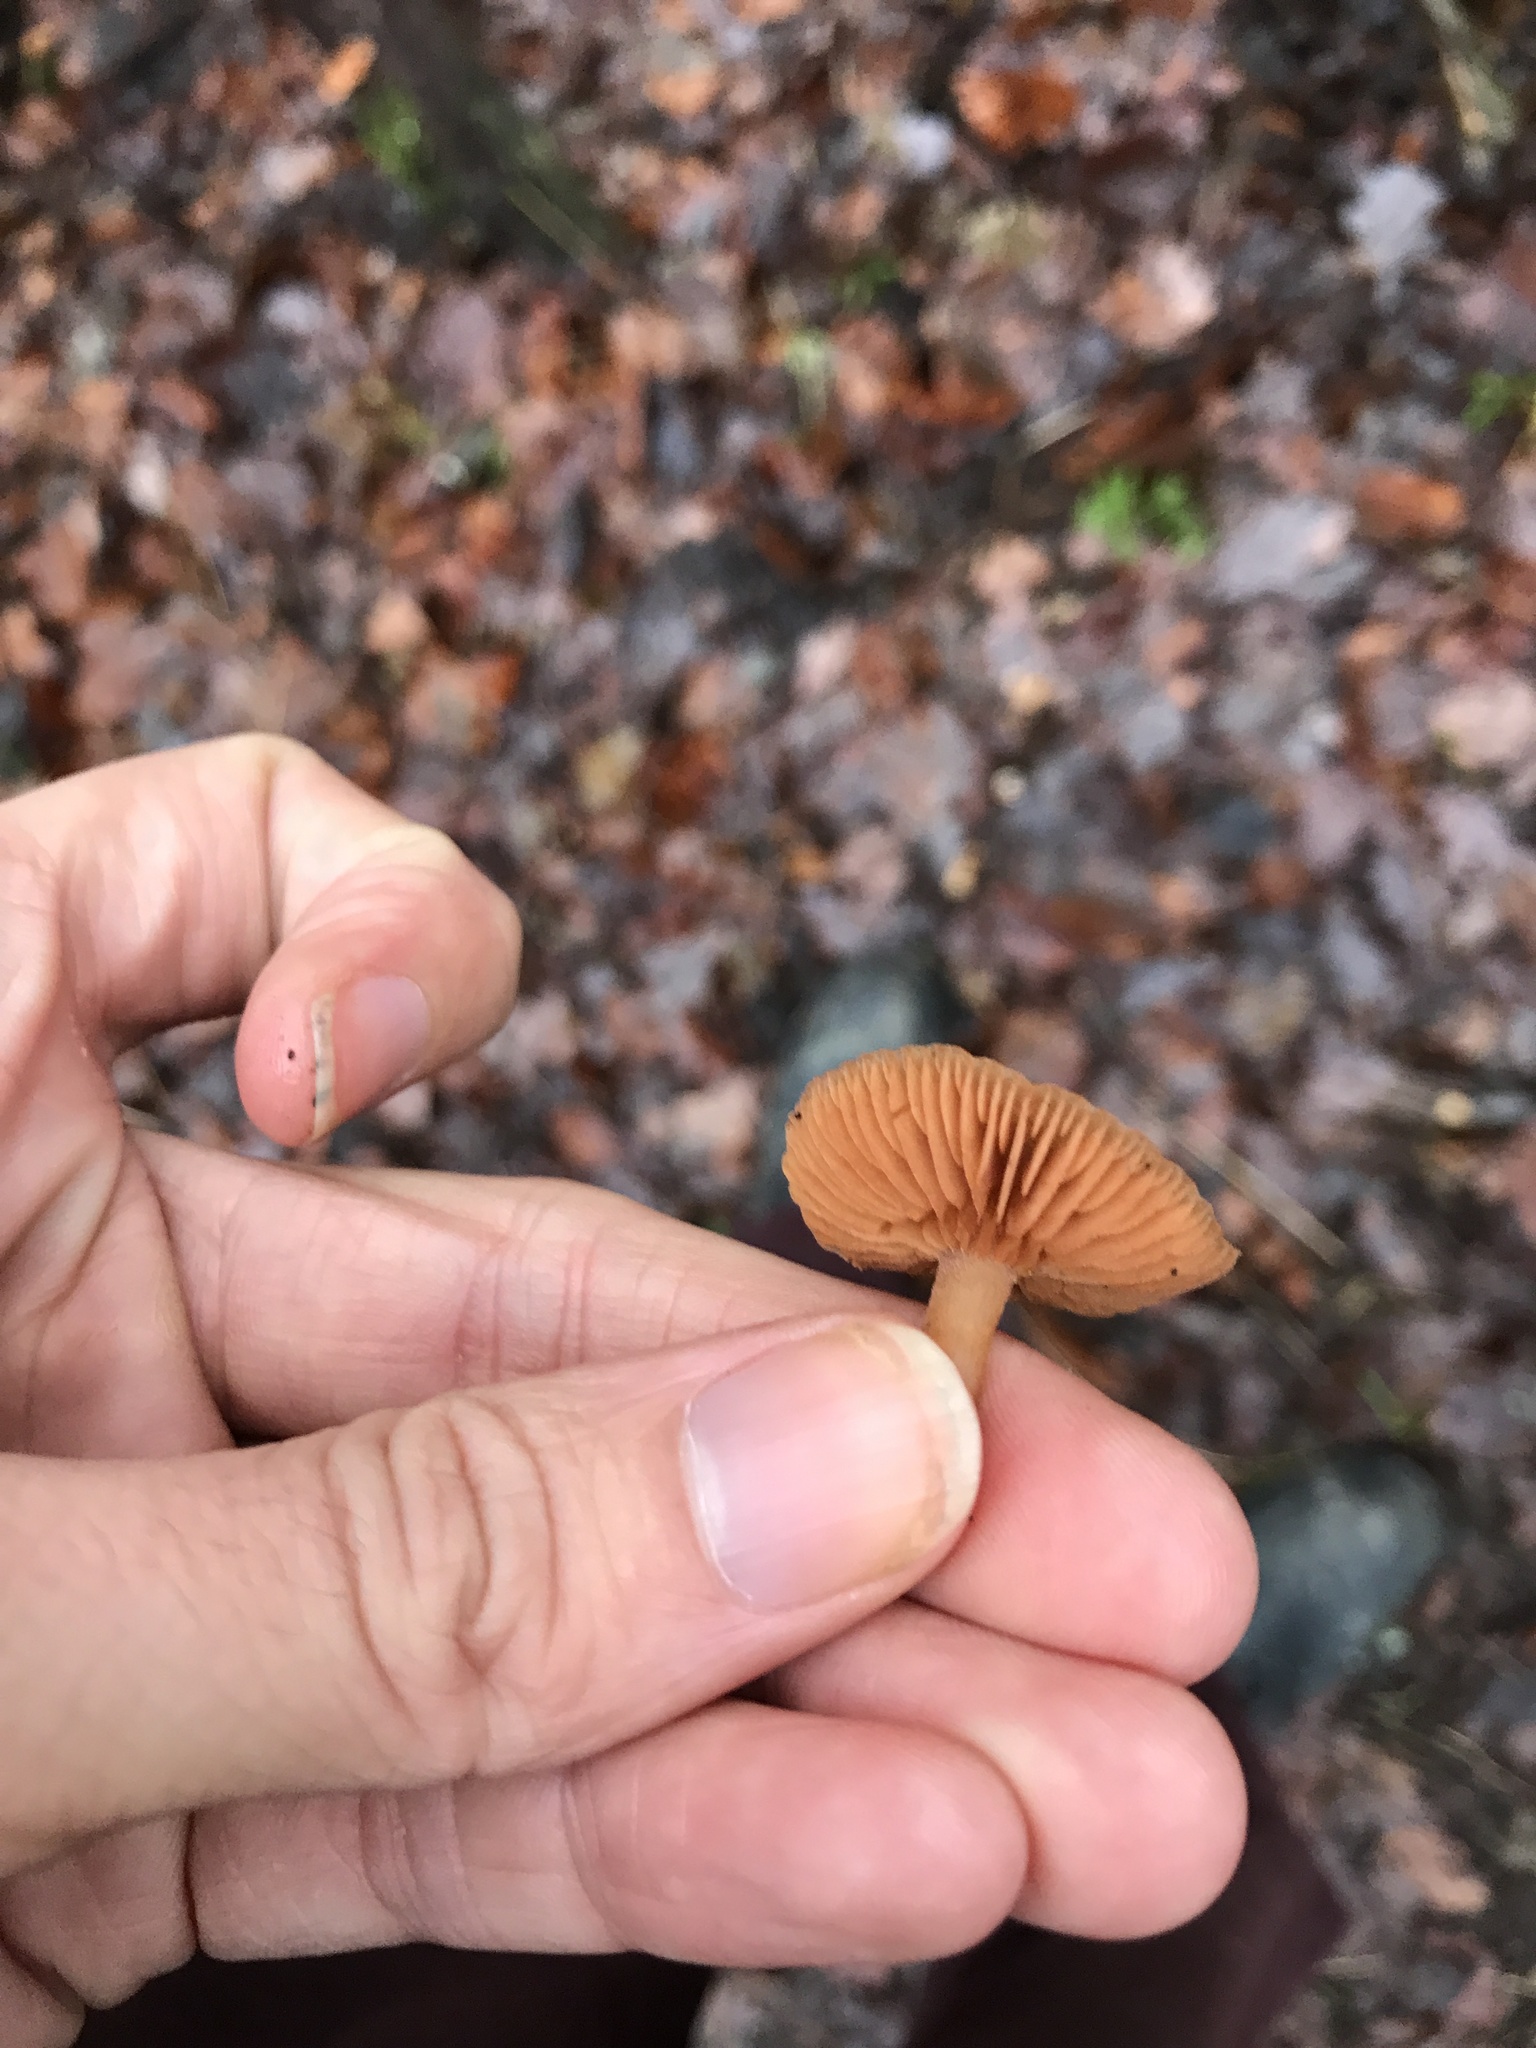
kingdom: Fungi
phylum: Basidiomycota
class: Agaricomycetes
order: Agaricales
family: Tubariaceae
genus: Tubaria
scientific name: Tubaria furfuracea
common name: Scurfy twiglet
